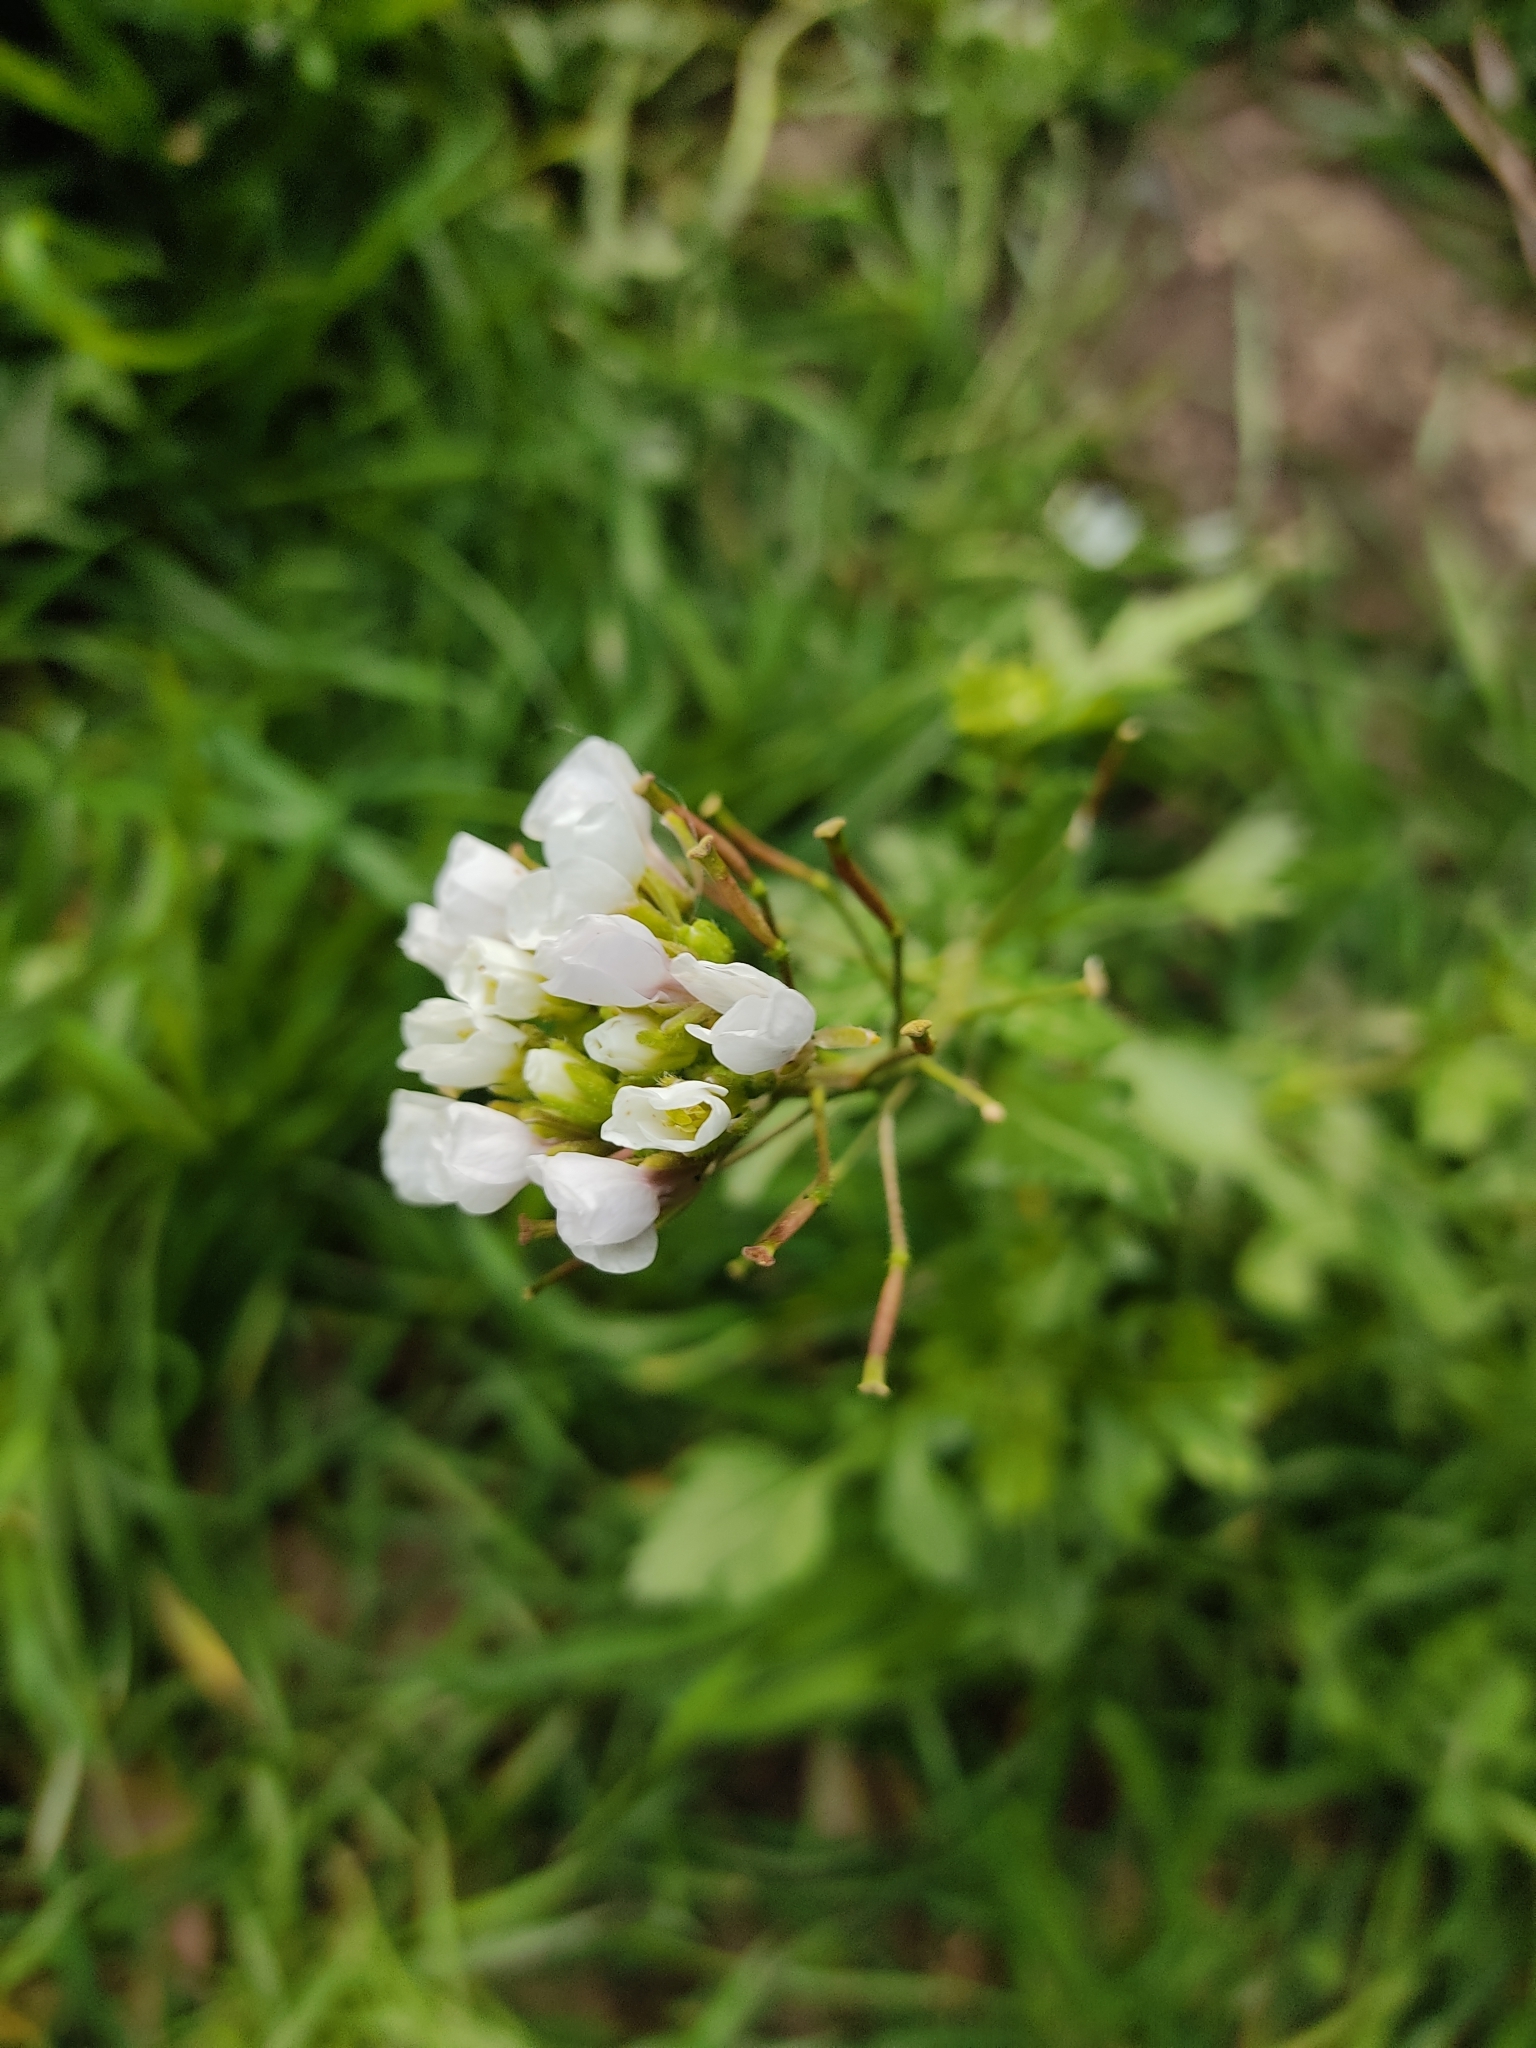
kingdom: Plantae
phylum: Tracheophyta
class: Magnoliopsida
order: Brassicales
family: Brassicaceae
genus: Diplotaxis
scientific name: Diplotaxis erucoides
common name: White rocket
